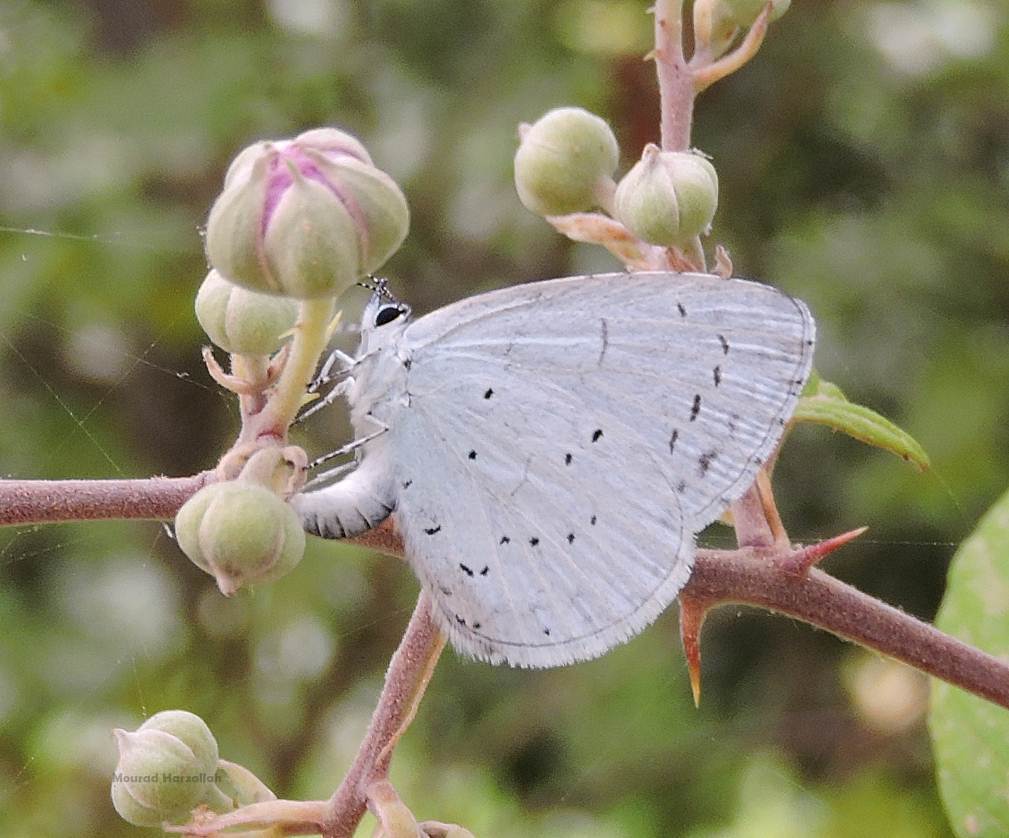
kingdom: Animalia
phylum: Arthropoda
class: Insecta
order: Lepidoptera
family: Lycaenidae
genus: Celastrina
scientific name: Celastrina argiolus
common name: Holly blue
